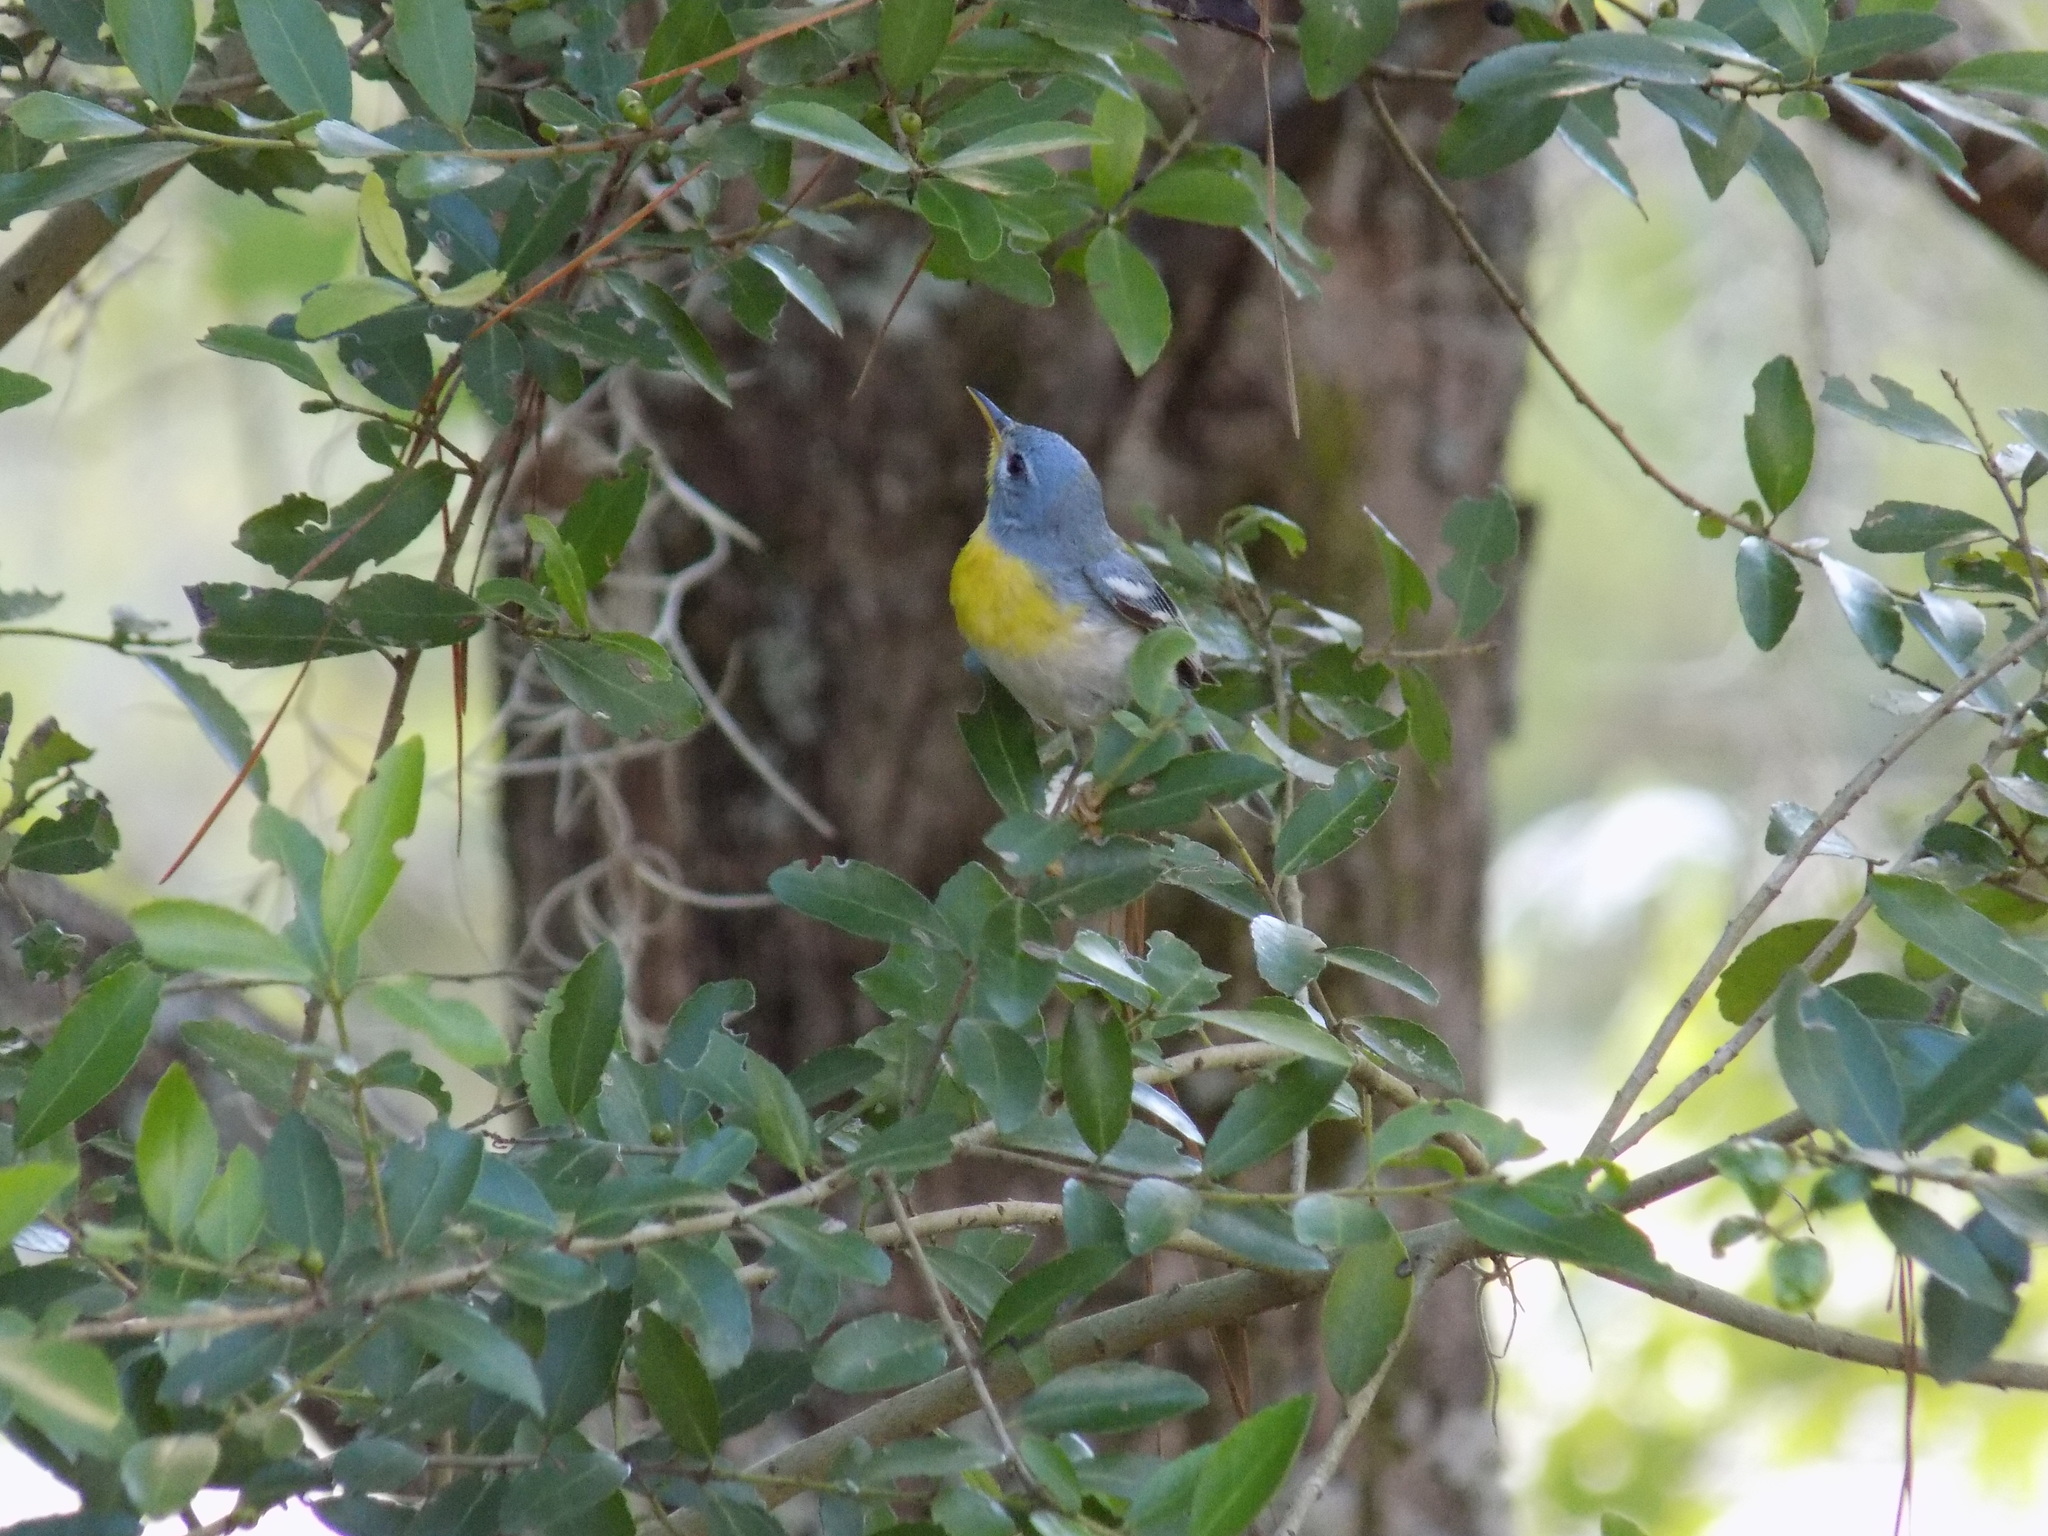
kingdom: Animalia
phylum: Chordata
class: Aves
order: Passeriformes
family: Parulidae
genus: Setophaga
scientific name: Setophaga americana
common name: Northern parula
